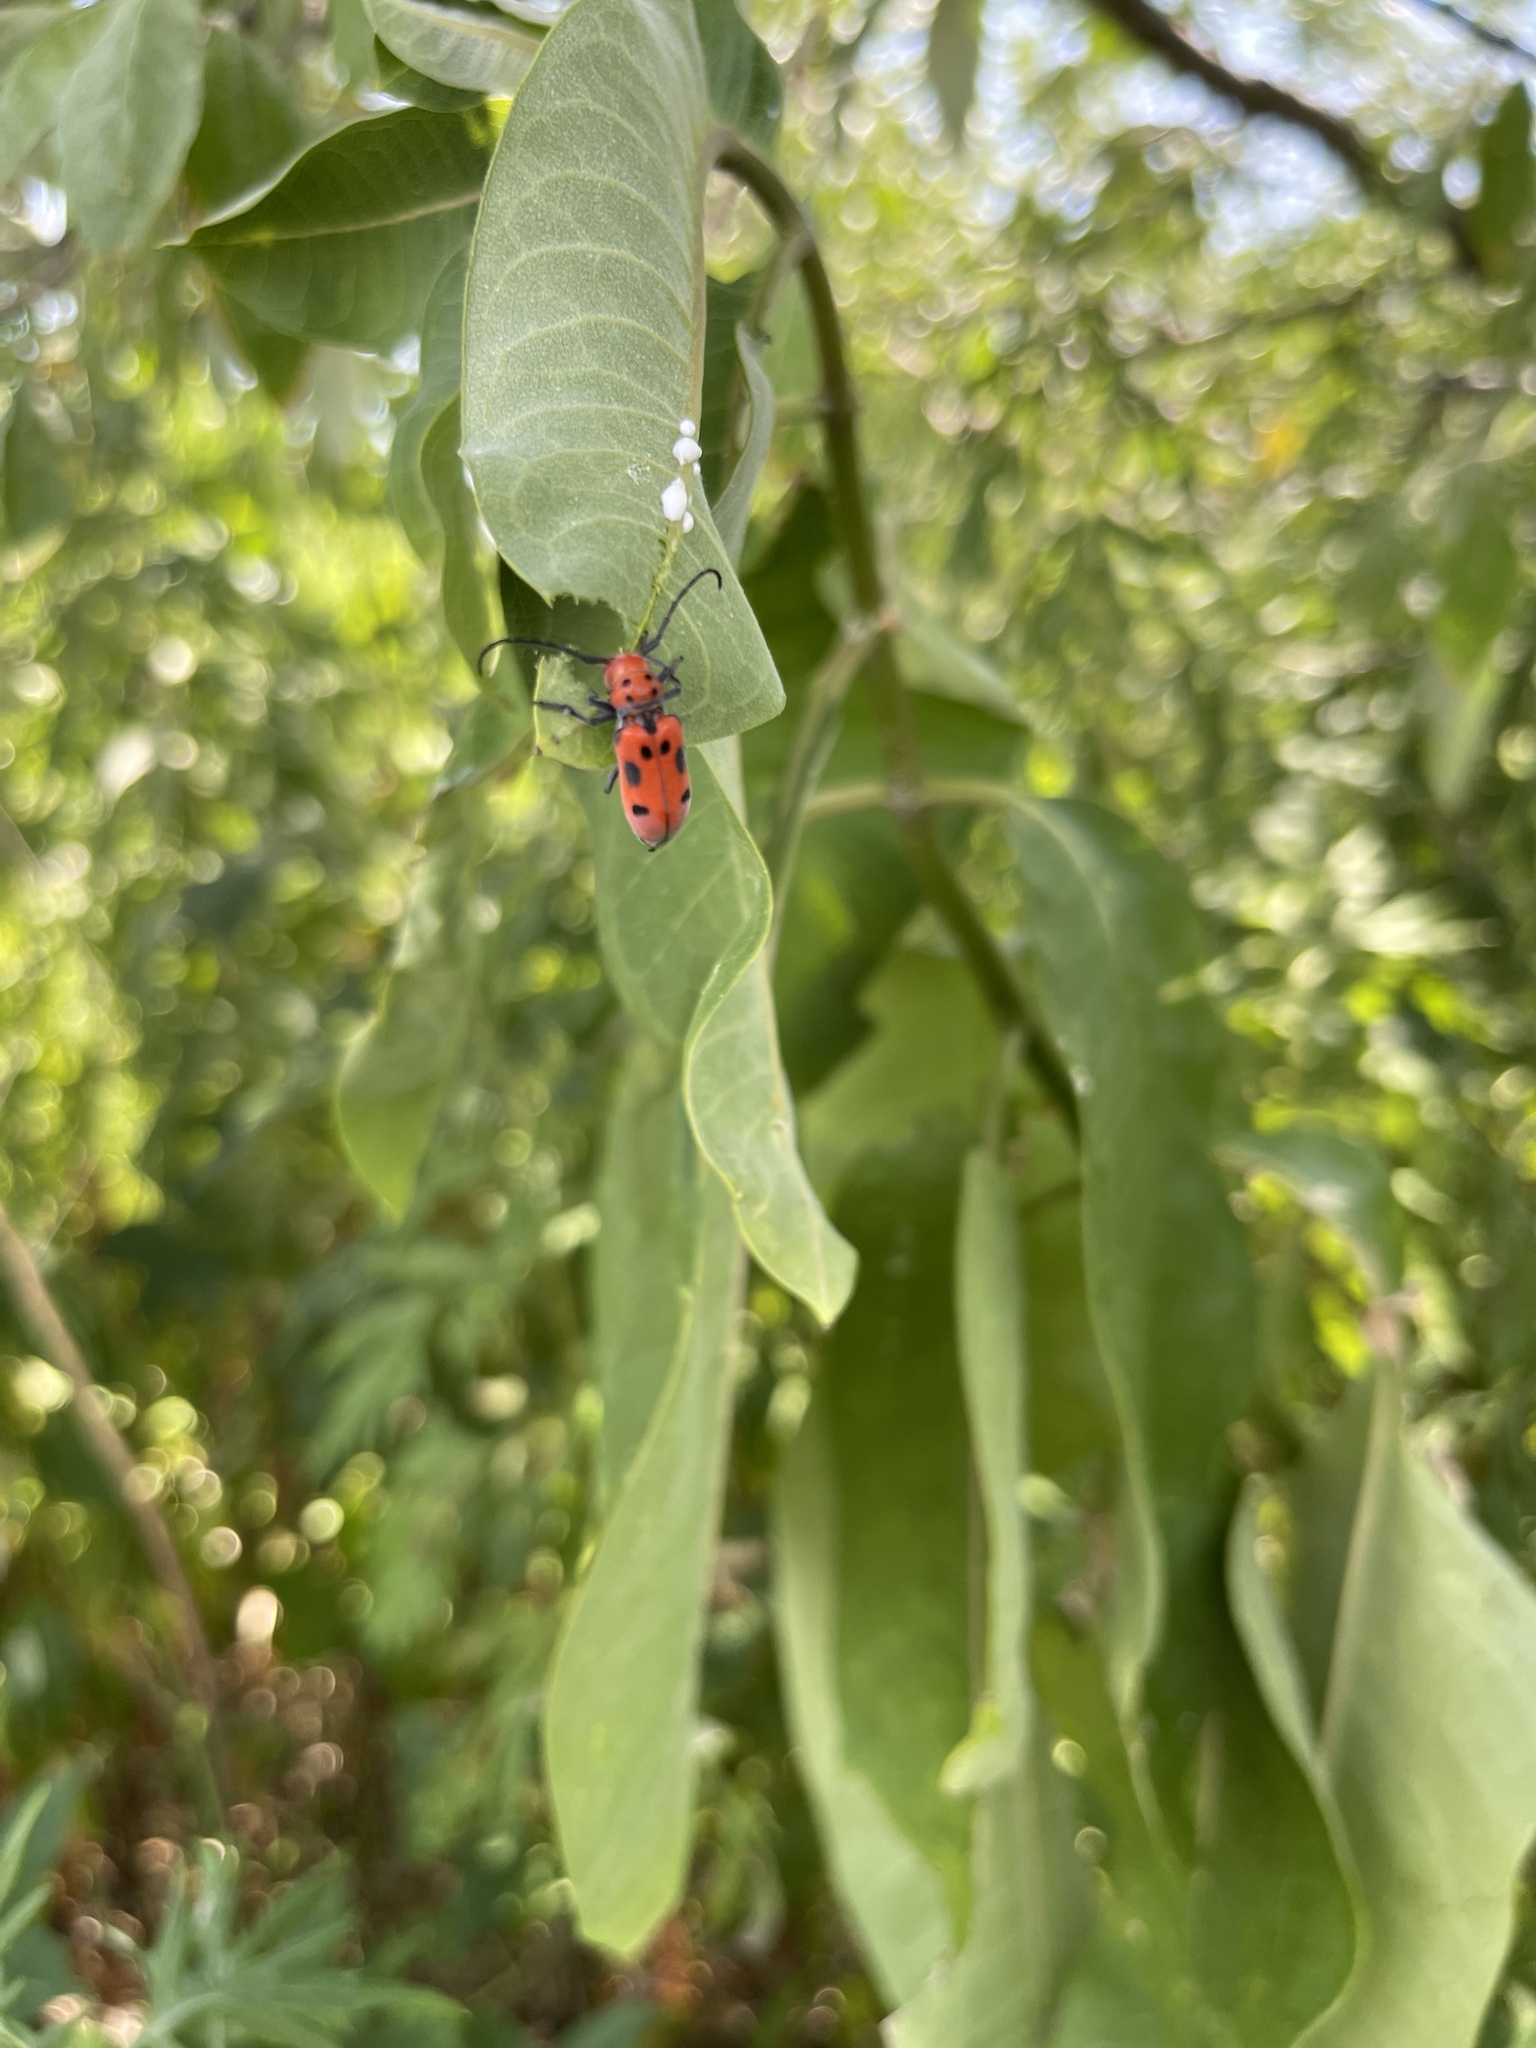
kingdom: Animalia
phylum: Arthropoda
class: Insecta
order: Coleoptera
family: Cerambycidae
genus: Tetraopes
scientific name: Tetraopes tetrophthalmus
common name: Red milkweed beetle
